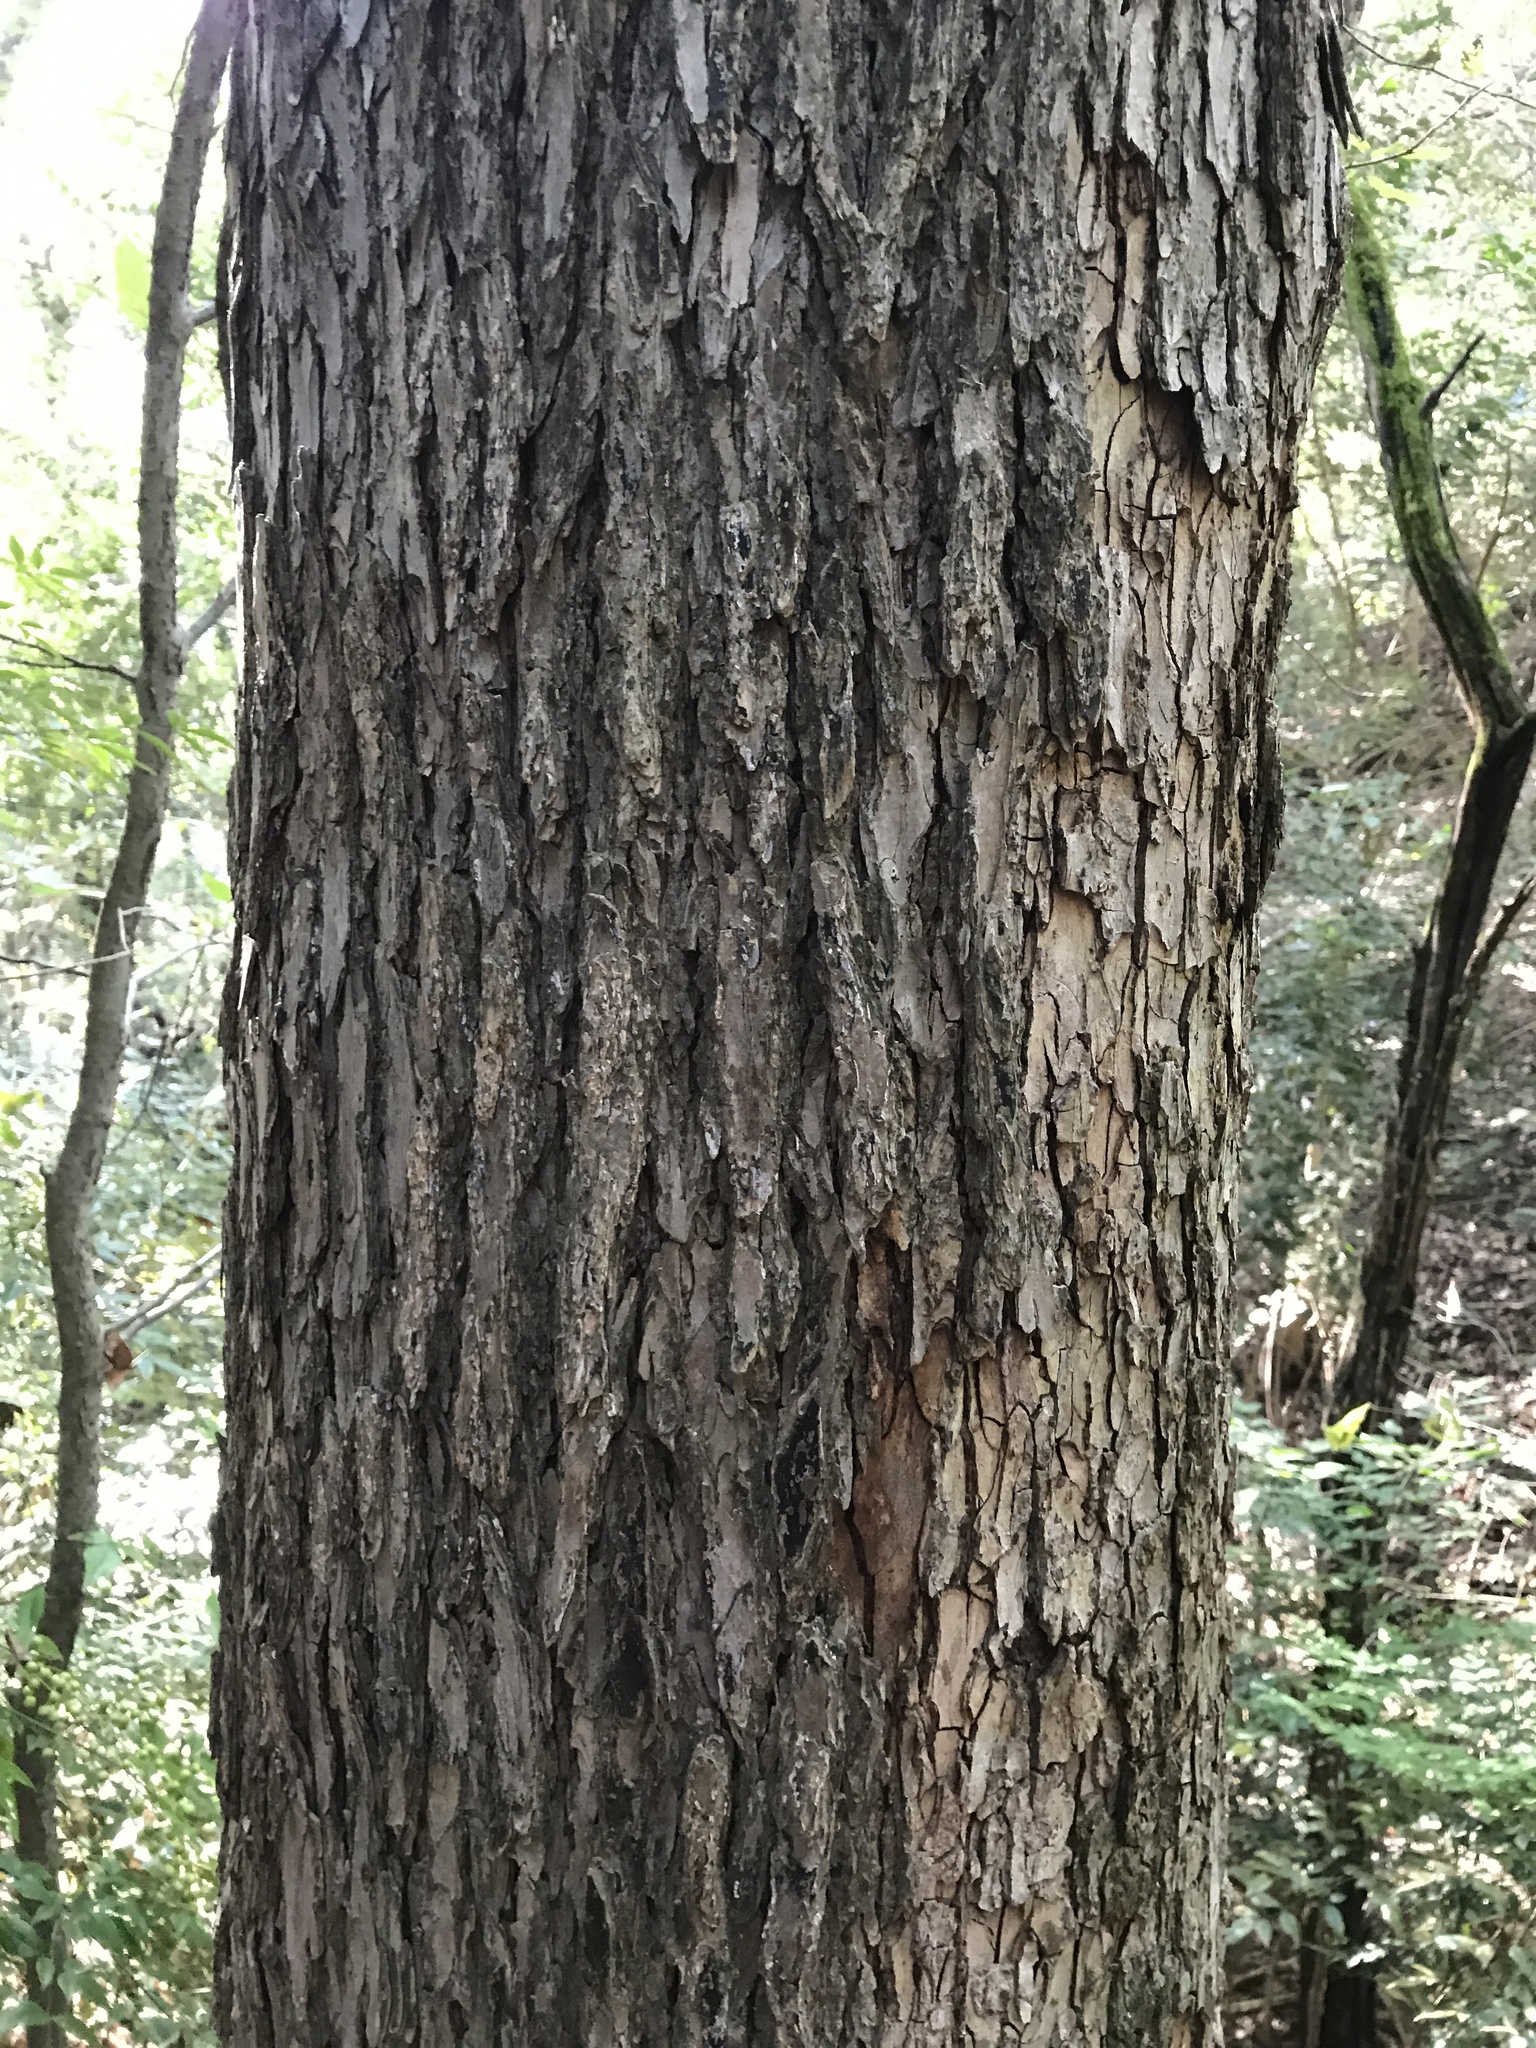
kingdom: Plantae
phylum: Tracheophyta
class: Magnoliopsida
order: Rosales
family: Ulmaceae
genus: Ulmus
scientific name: Ulmus crassifolia
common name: Basket elm
